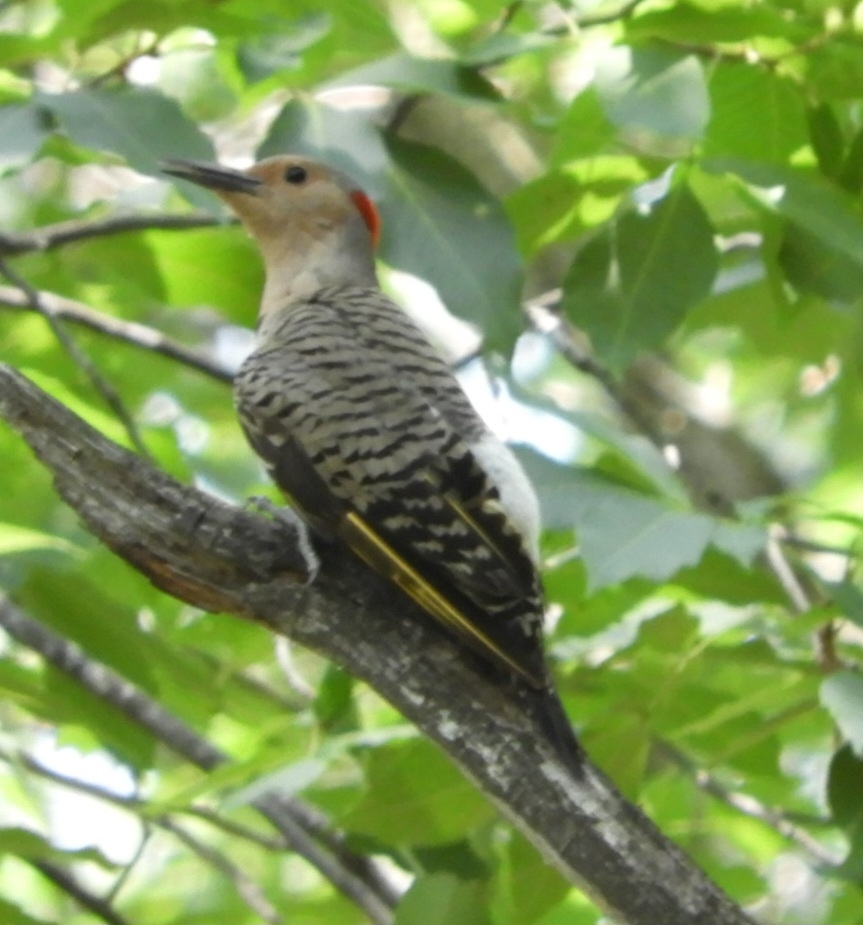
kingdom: Animalia
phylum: Chordata
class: Aves
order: Piciformes
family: Picidae
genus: Colaptes
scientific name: Colaptes auratus
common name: Northern flicker
